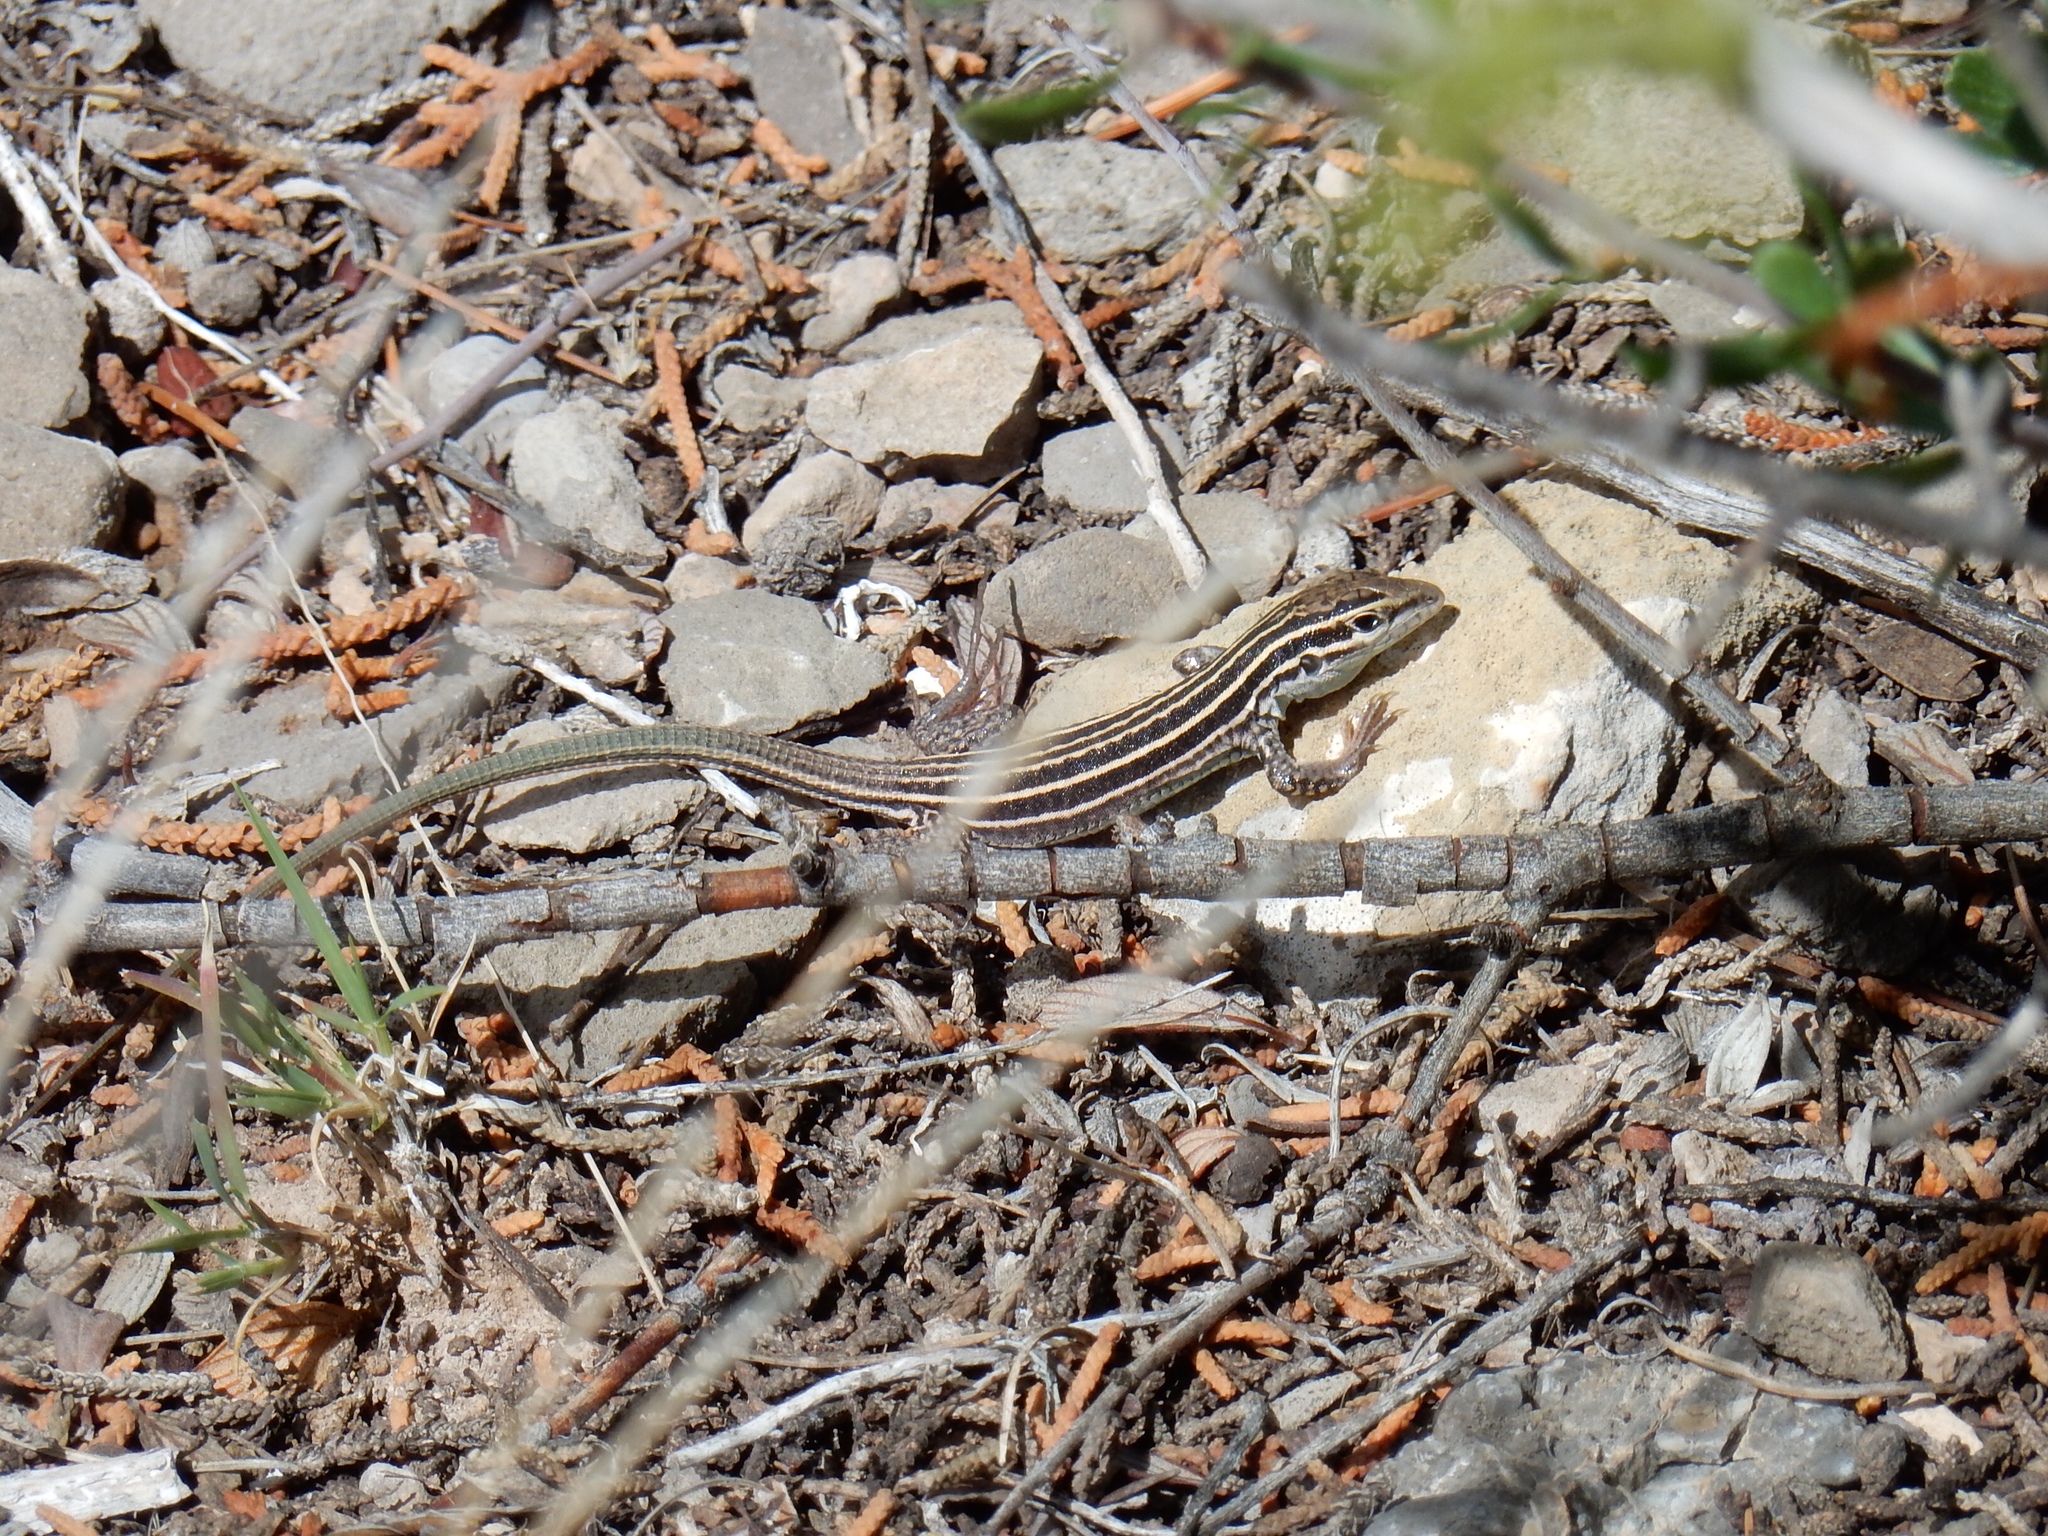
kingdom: Animalia
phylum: Chordata
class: Squamata
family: Teiidae
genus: Aspidoscelis
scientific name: Aspidoscelis exsanguis
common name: Chihuahuan spotted whiptail
